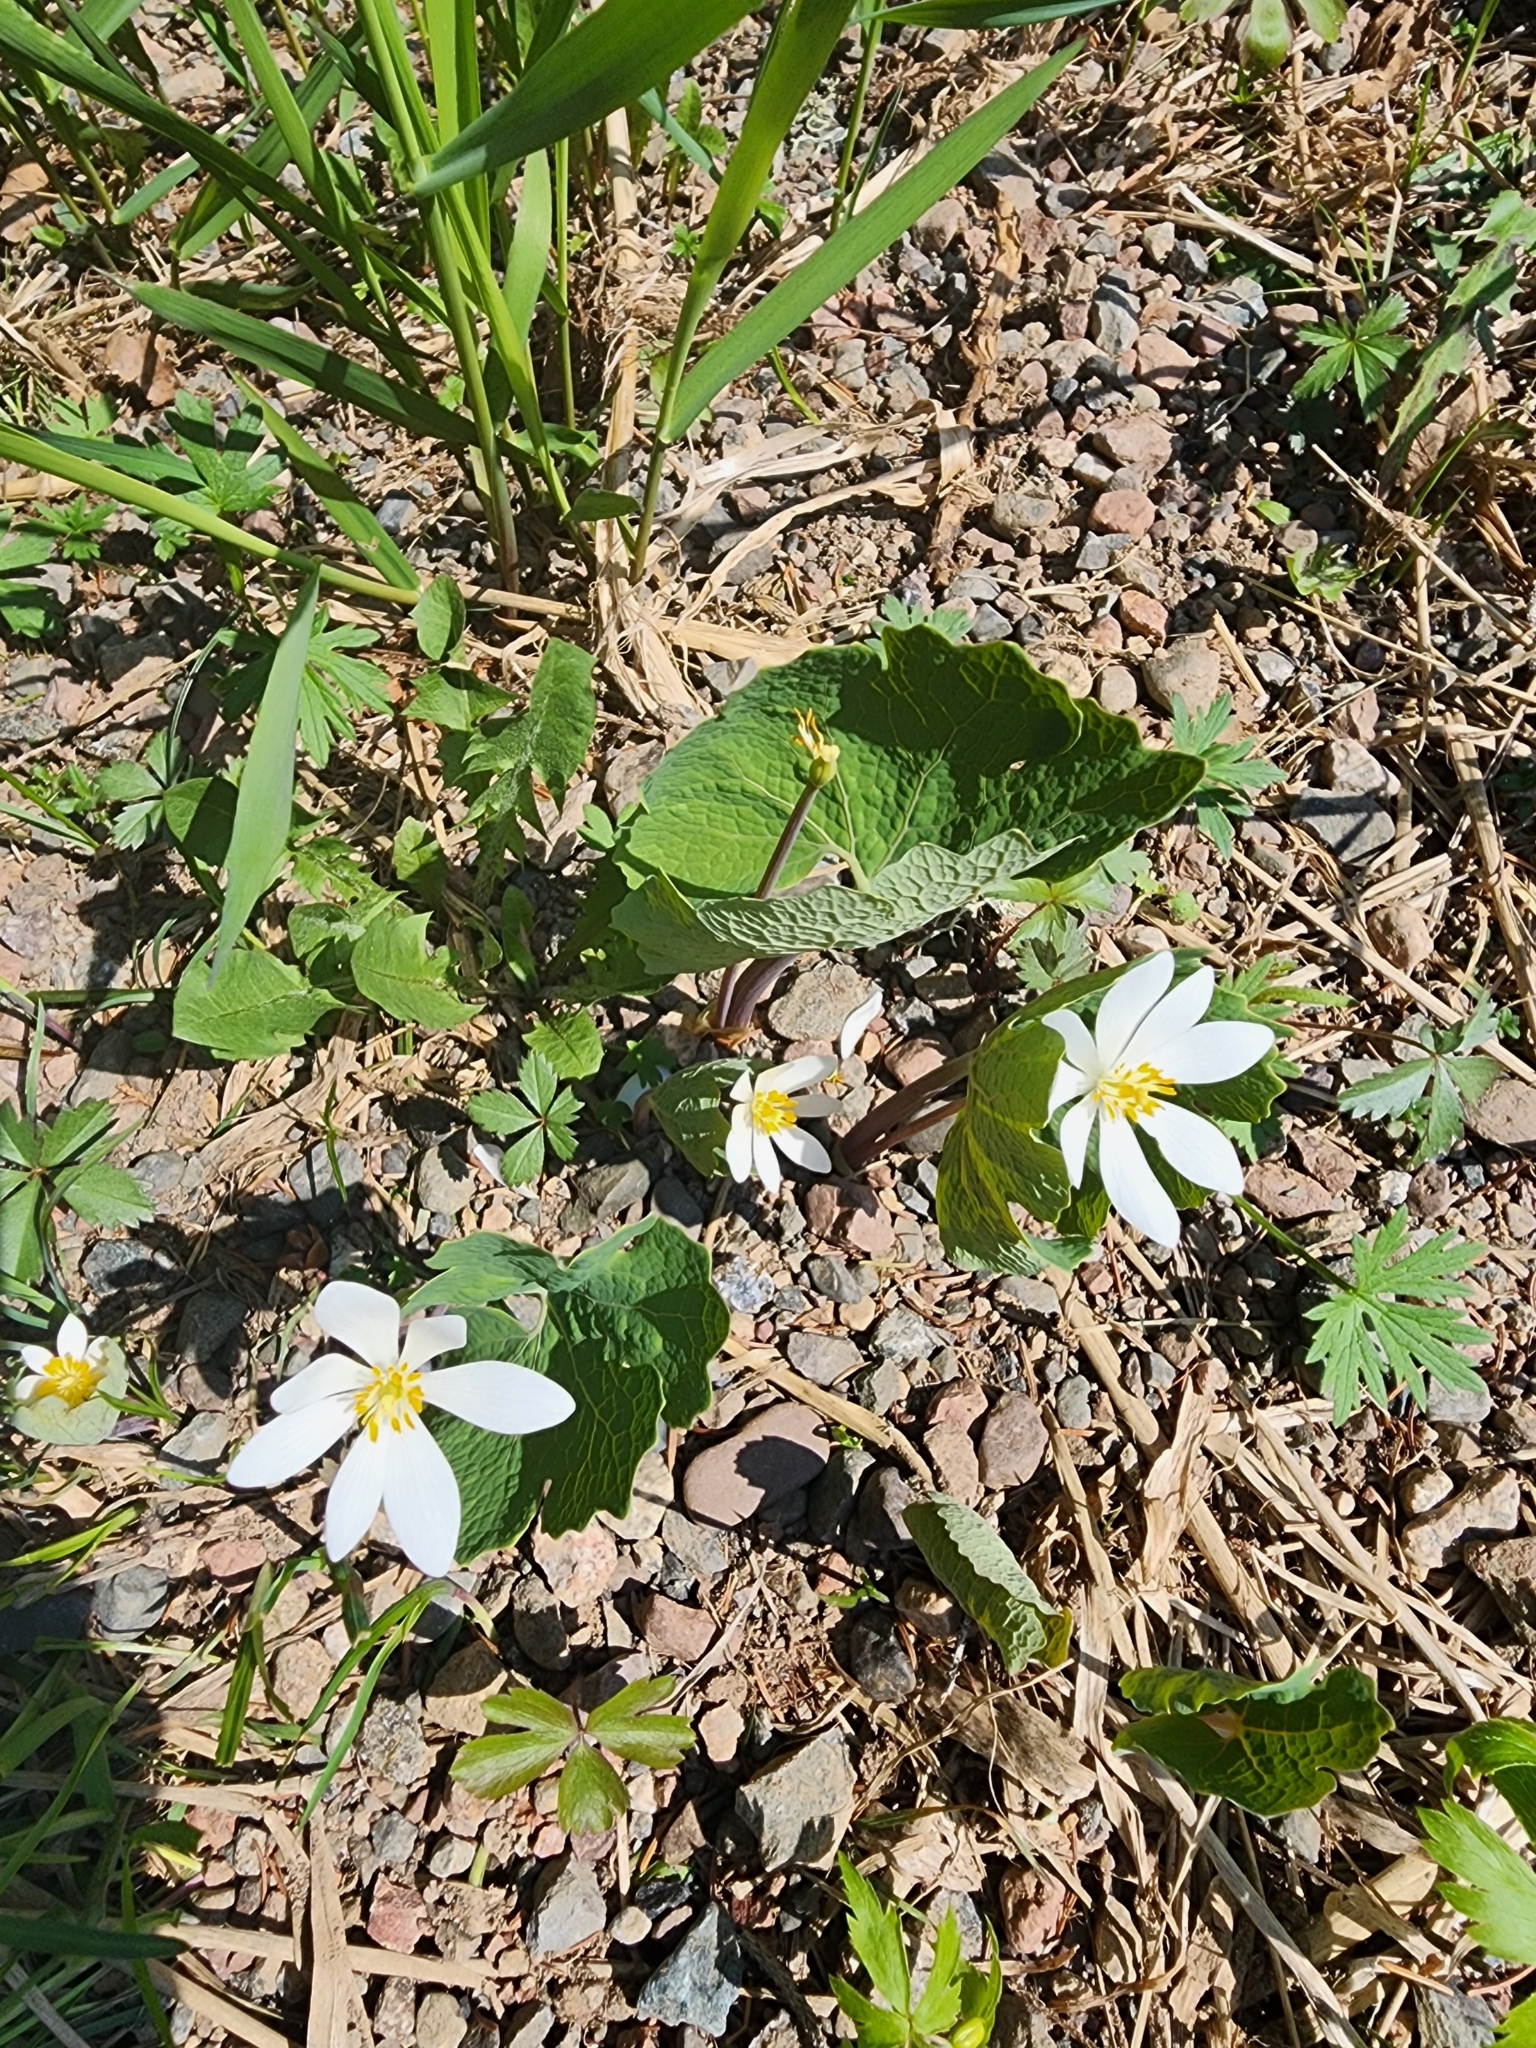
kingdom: Plantae
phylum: Tracheophyta
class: Magnoliopsida
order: Ranunculales
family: Papaveraceae
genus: Sanguinaria
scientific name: Sanguinaria canadensis
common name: Bloodroot
